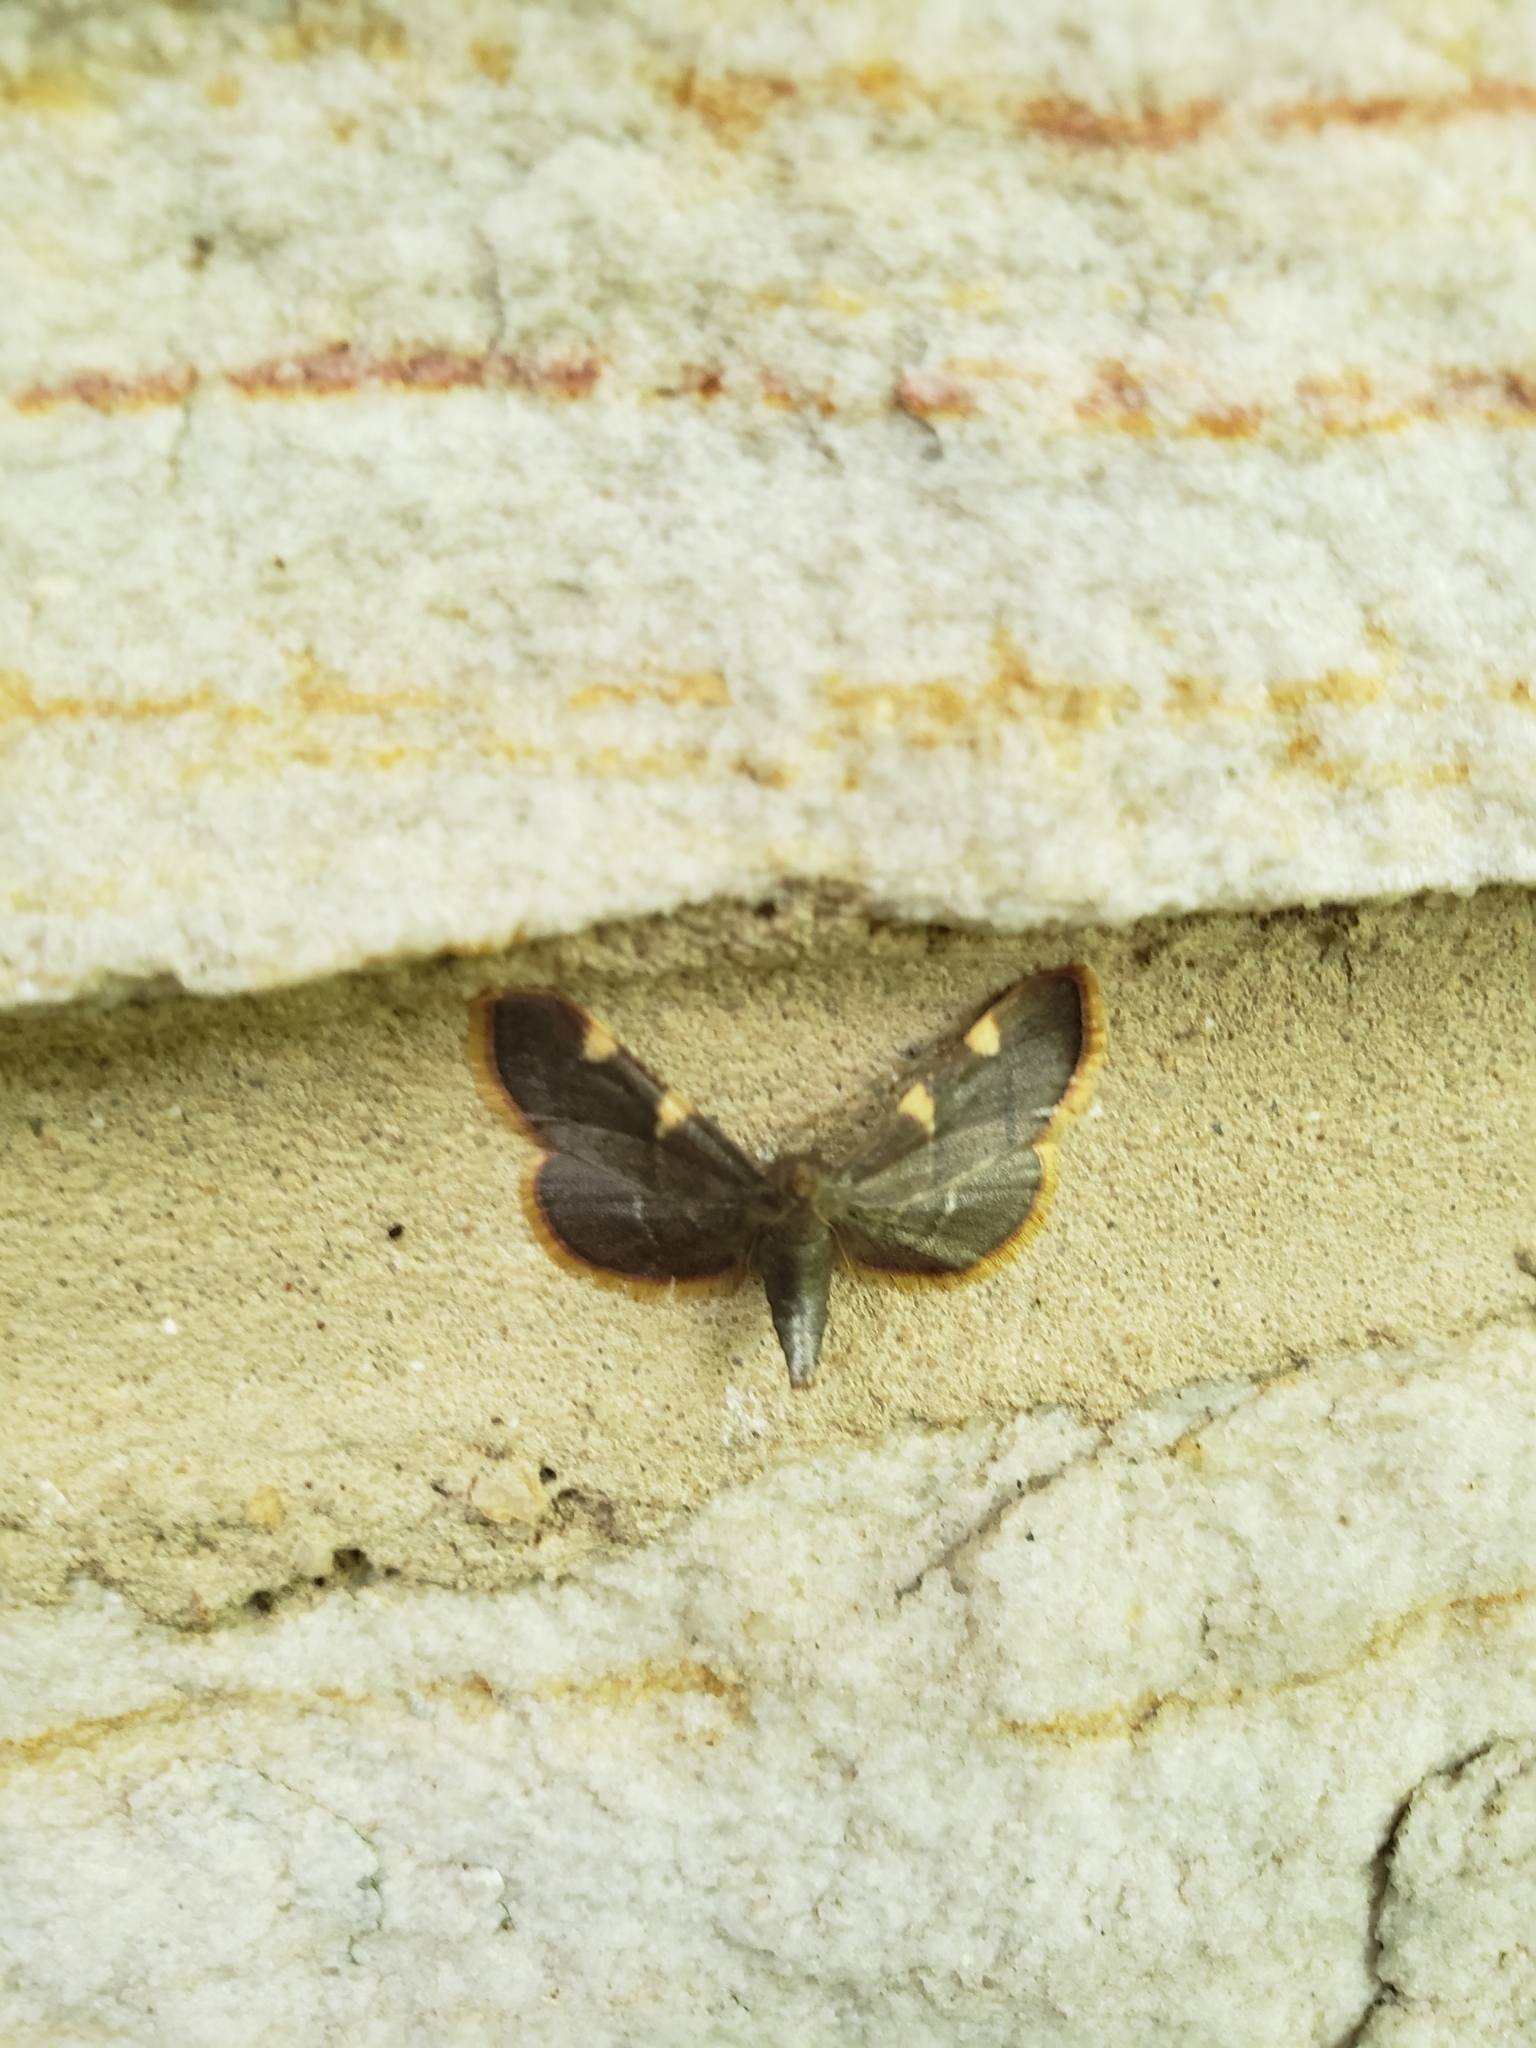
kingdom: Animalia
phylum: Arthropoda
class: Insecta
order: Lepidoptera
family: Pyralidae
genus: Hypsopygia
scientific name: Hypsopygia olinalis
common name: Yellow-fringed dolichomia moth
